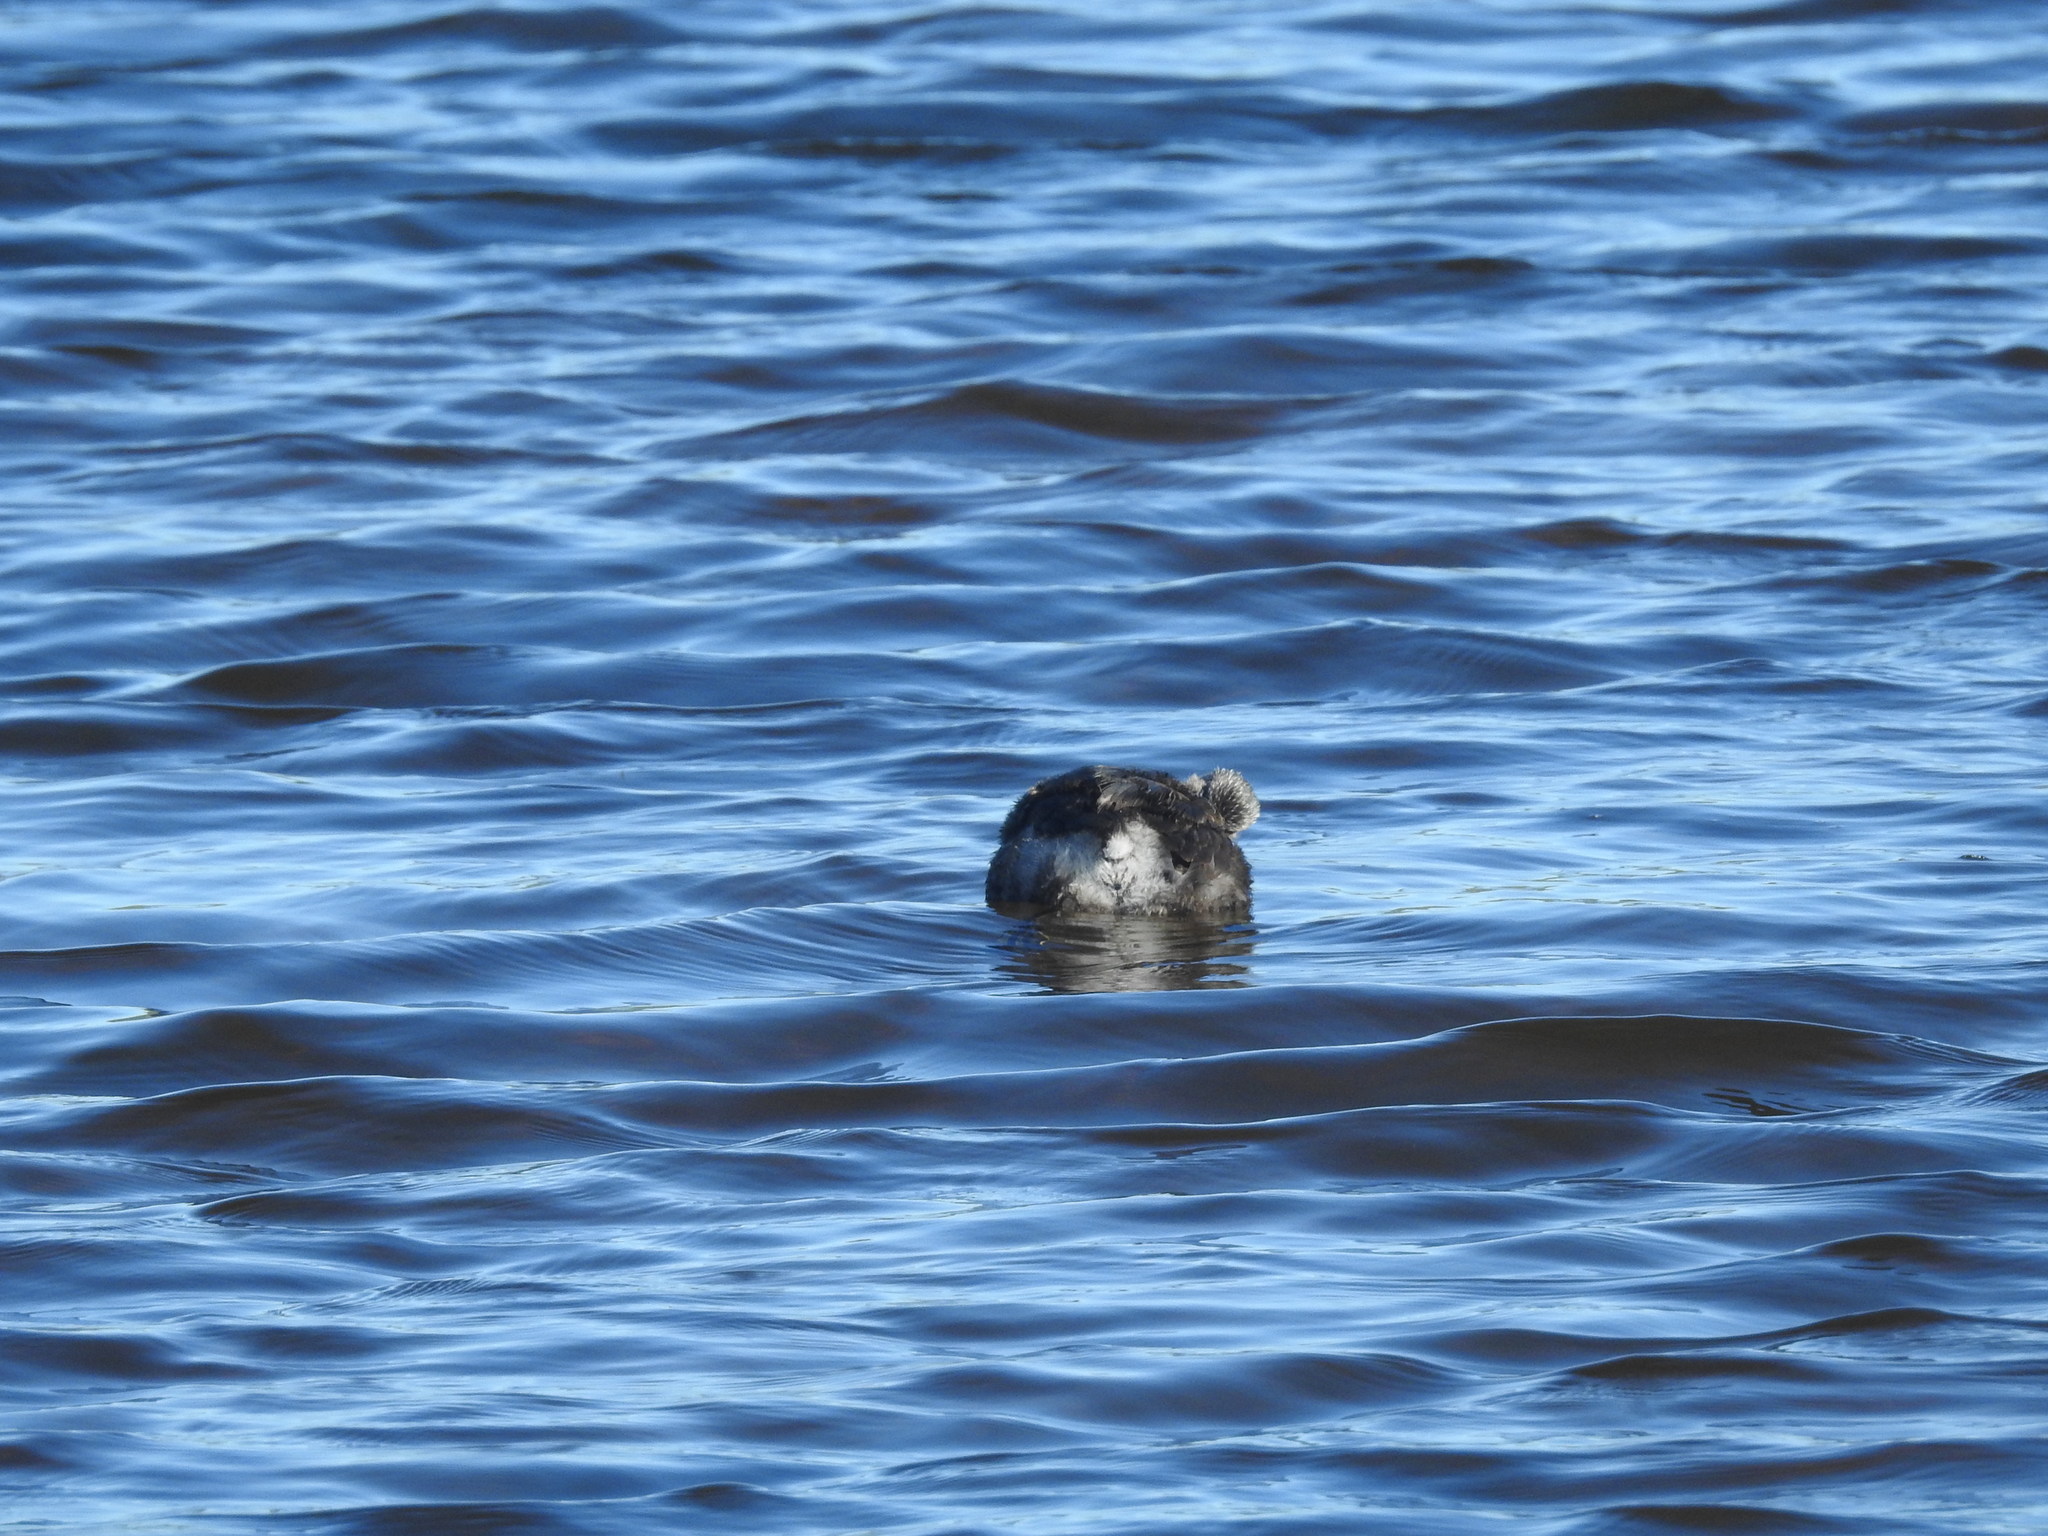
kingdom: Animalia
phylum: Chordata
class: Aves
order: Podicipediformes
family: Podicipedidae
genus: Poliocephalus
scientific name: Poliocephalus rufopectus
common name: New zealand grebe
